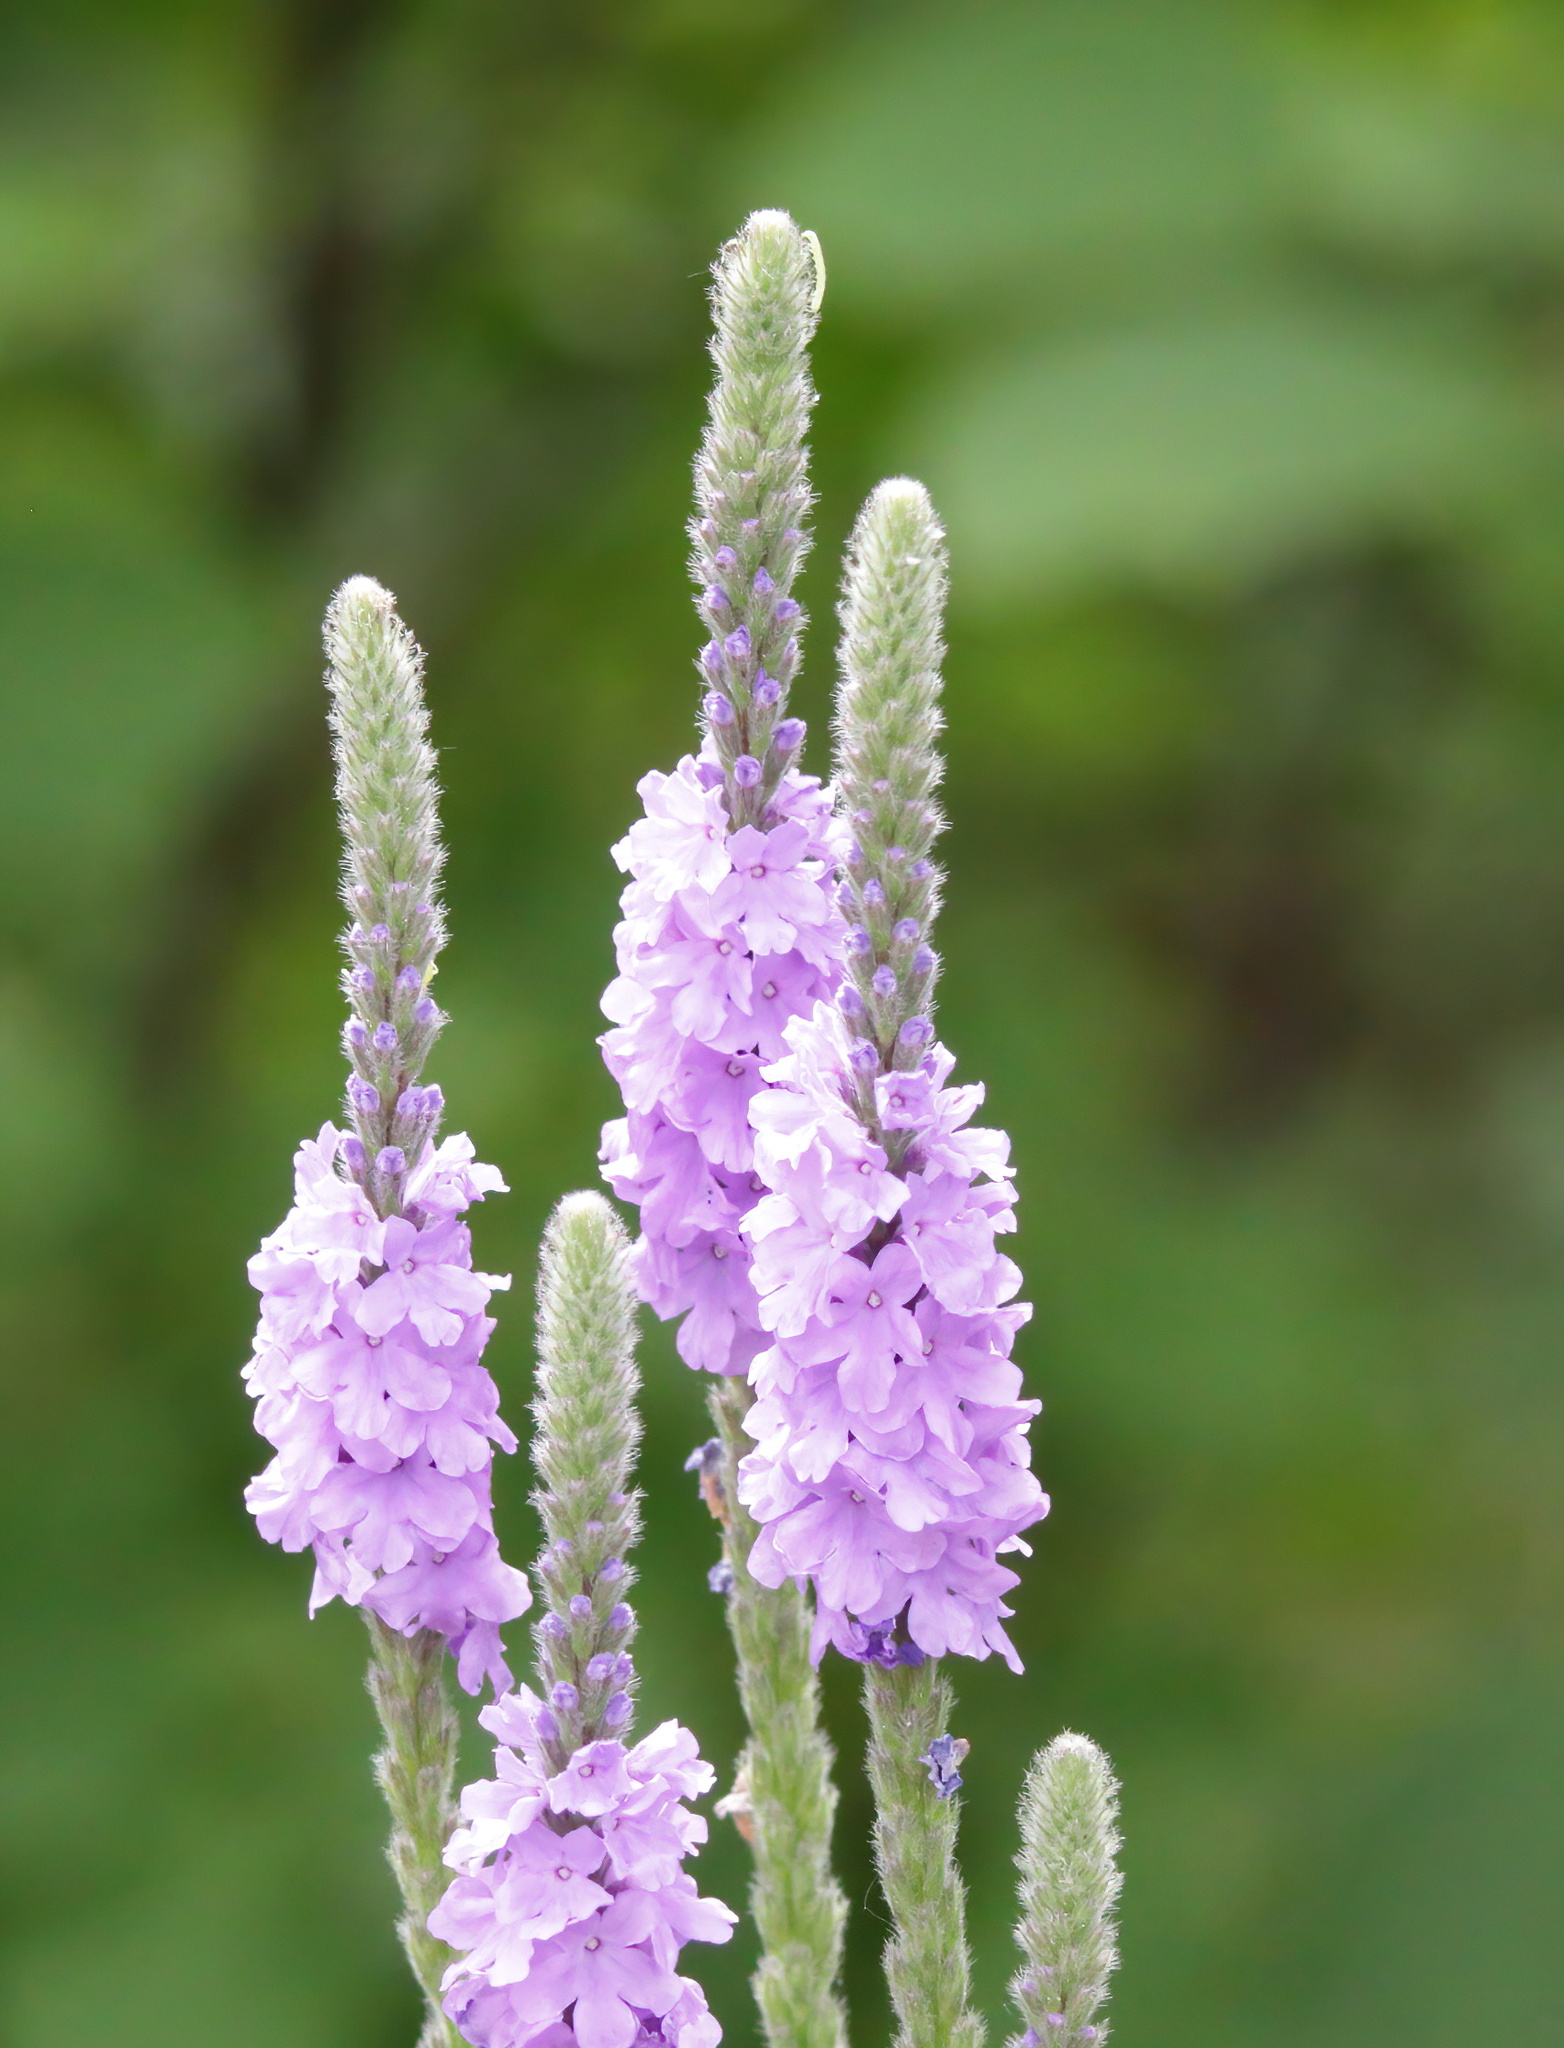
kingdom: Plantae
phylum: Tracheophyta
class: Magnoliopsida
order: Lamiales
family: Verbenaceae
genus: Verbena
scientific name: Verbena stricta
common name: Hoary vervain
